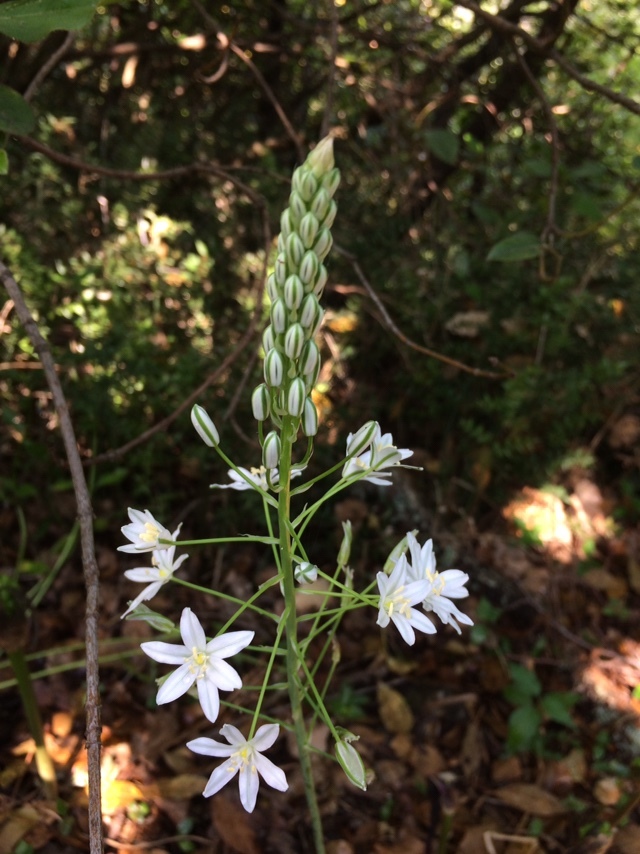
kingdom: Plantae
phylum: Tracheophyta
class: Liliopsida
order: Asparagales
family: Asparagaceae
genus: Ornithogalum
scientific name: Ornithogalum ponticum
